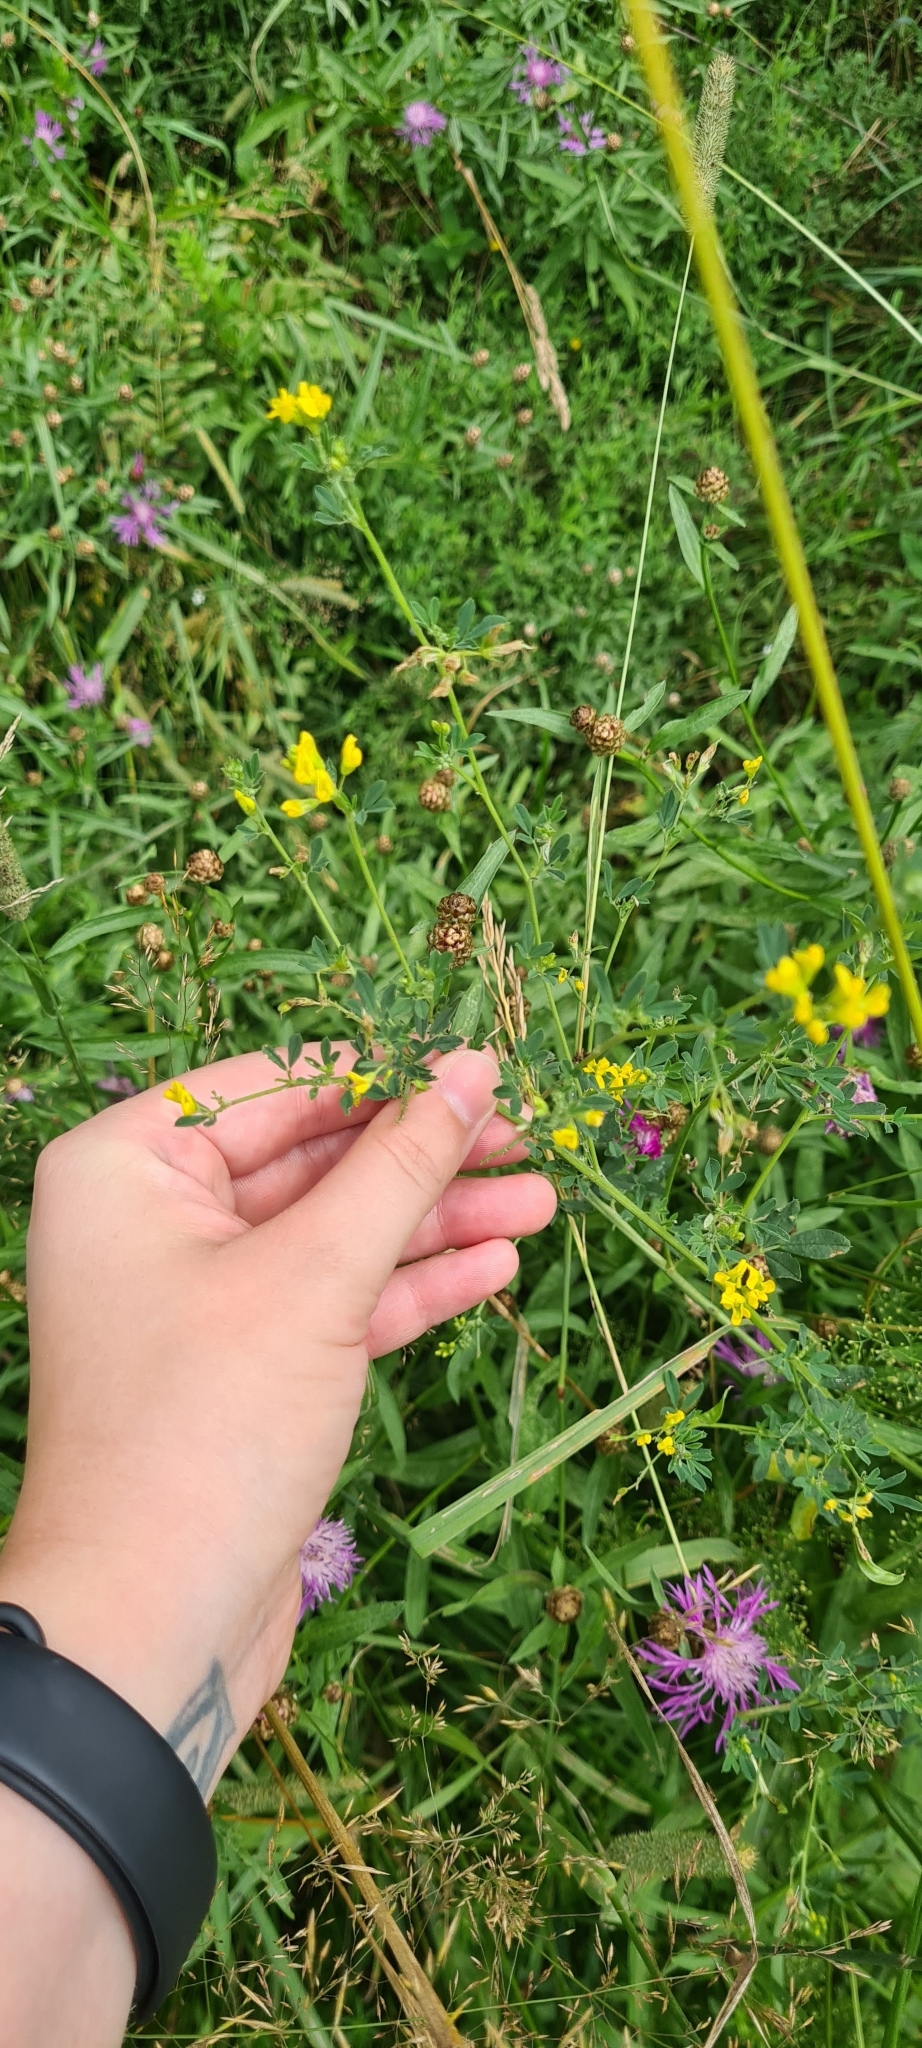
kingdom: Plantae
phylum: Tracheophyta
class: Magnoliopsida
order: Fabales
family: Fabaceae
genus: Medicago
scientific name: Medicago falcata
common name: Sickle medick
